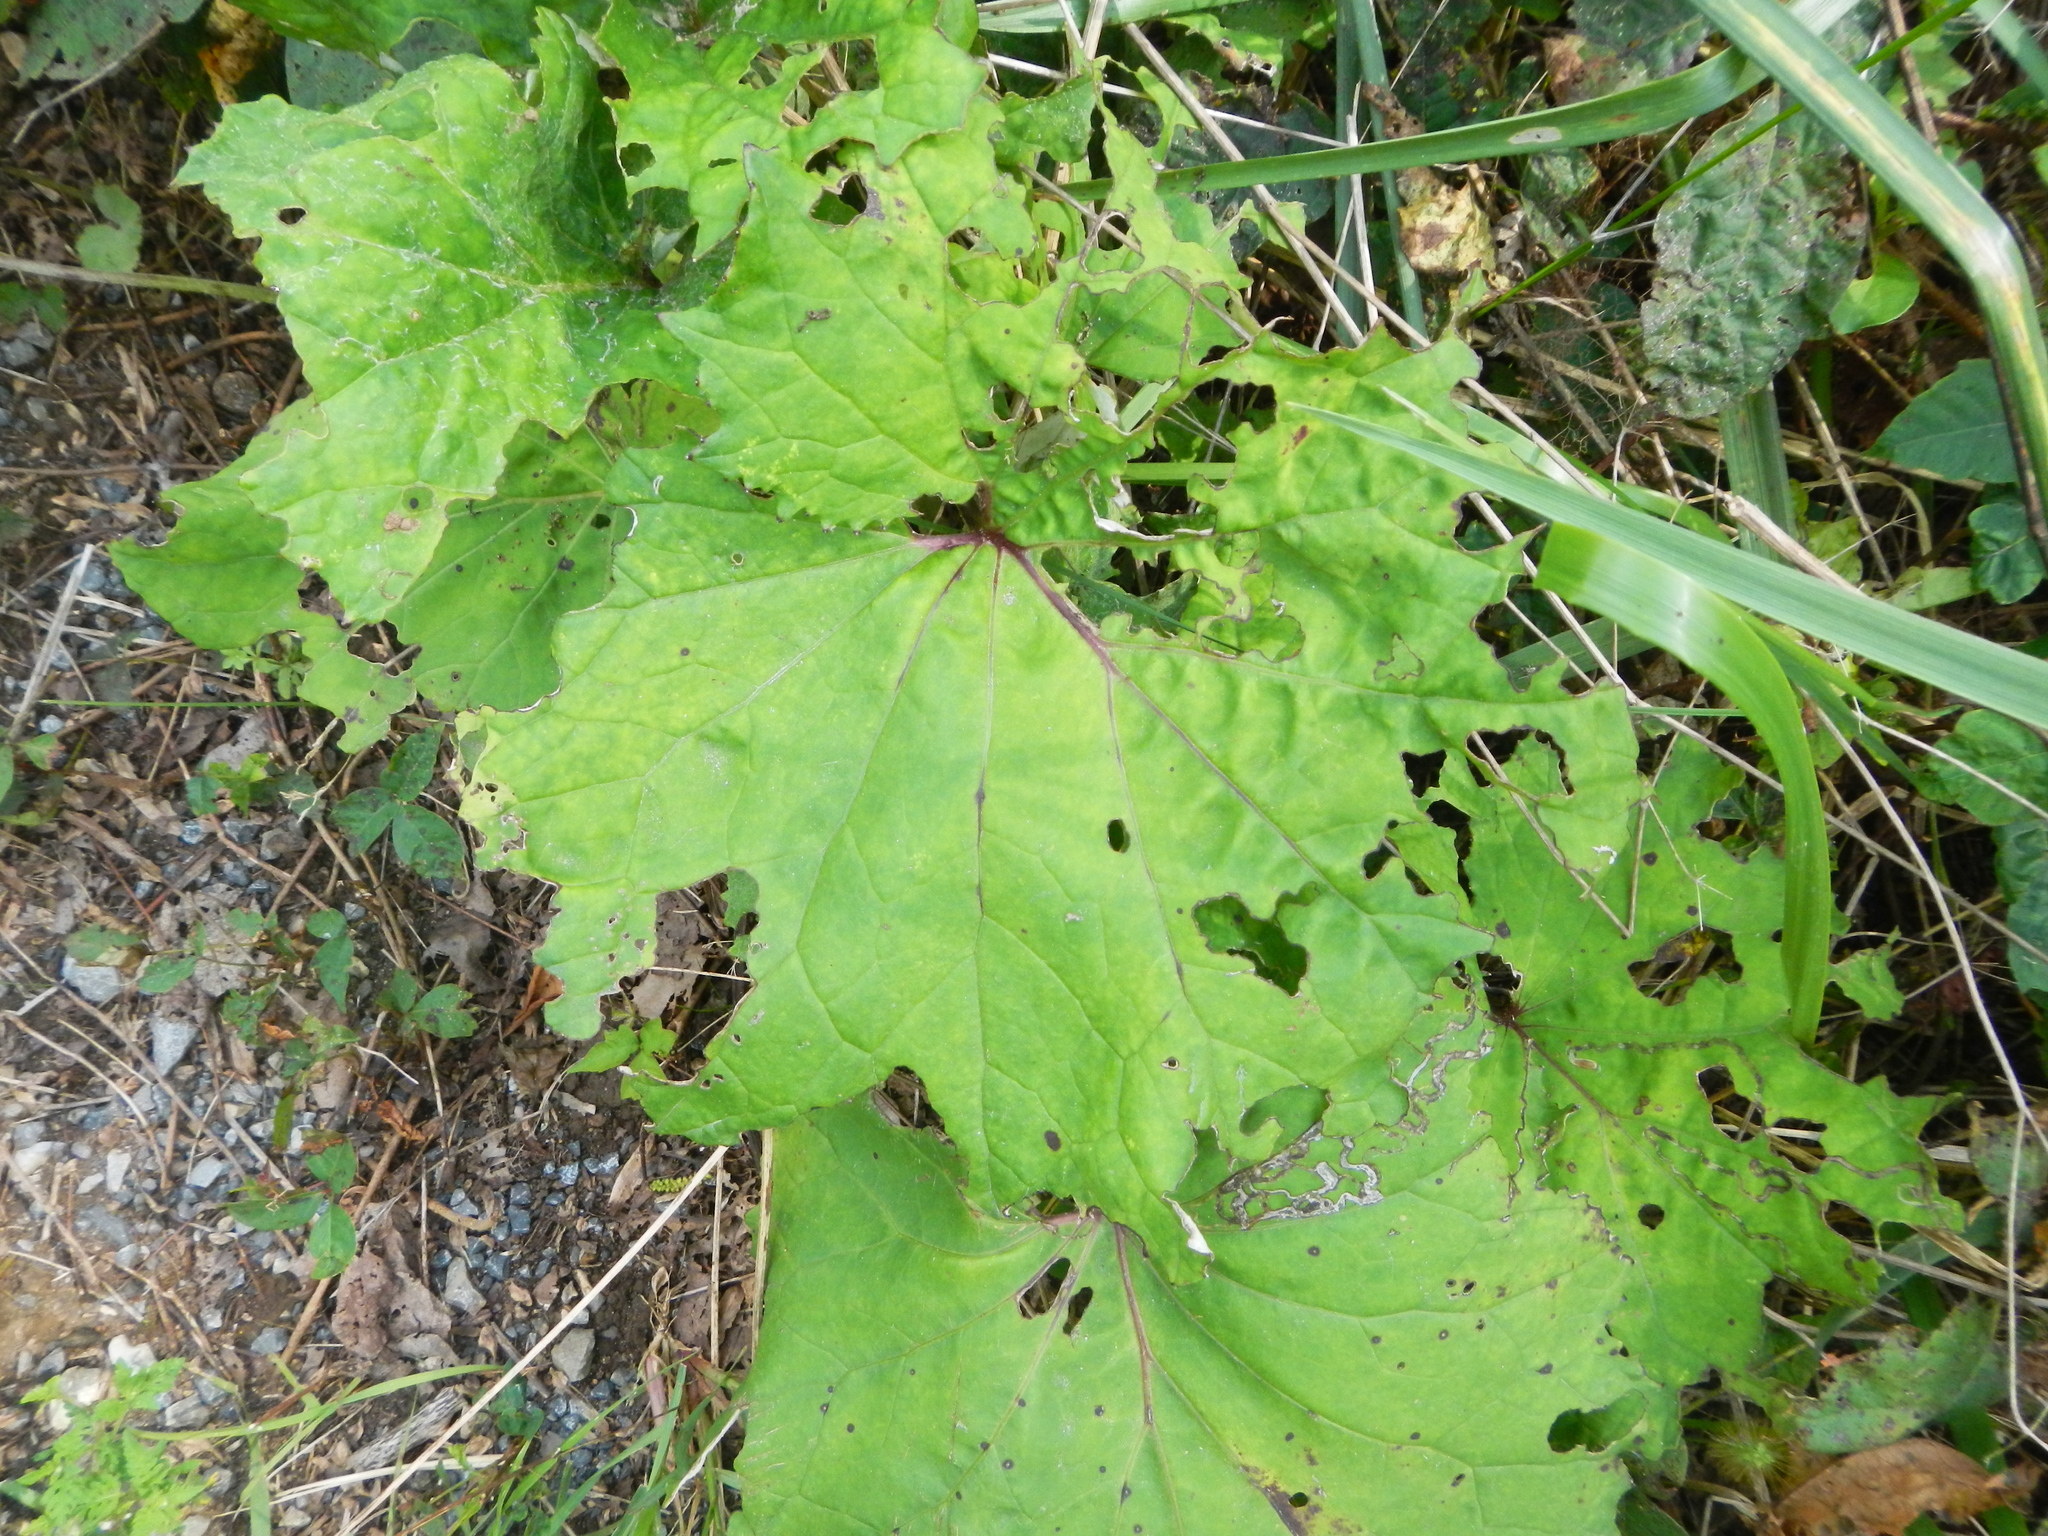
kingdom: Plantae
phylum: Tracheophyta
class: Magnoliopsida
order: Asterales
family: Asteraceae
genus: Tussilago
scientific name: Tussilago farfara
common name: Coltsfoot
